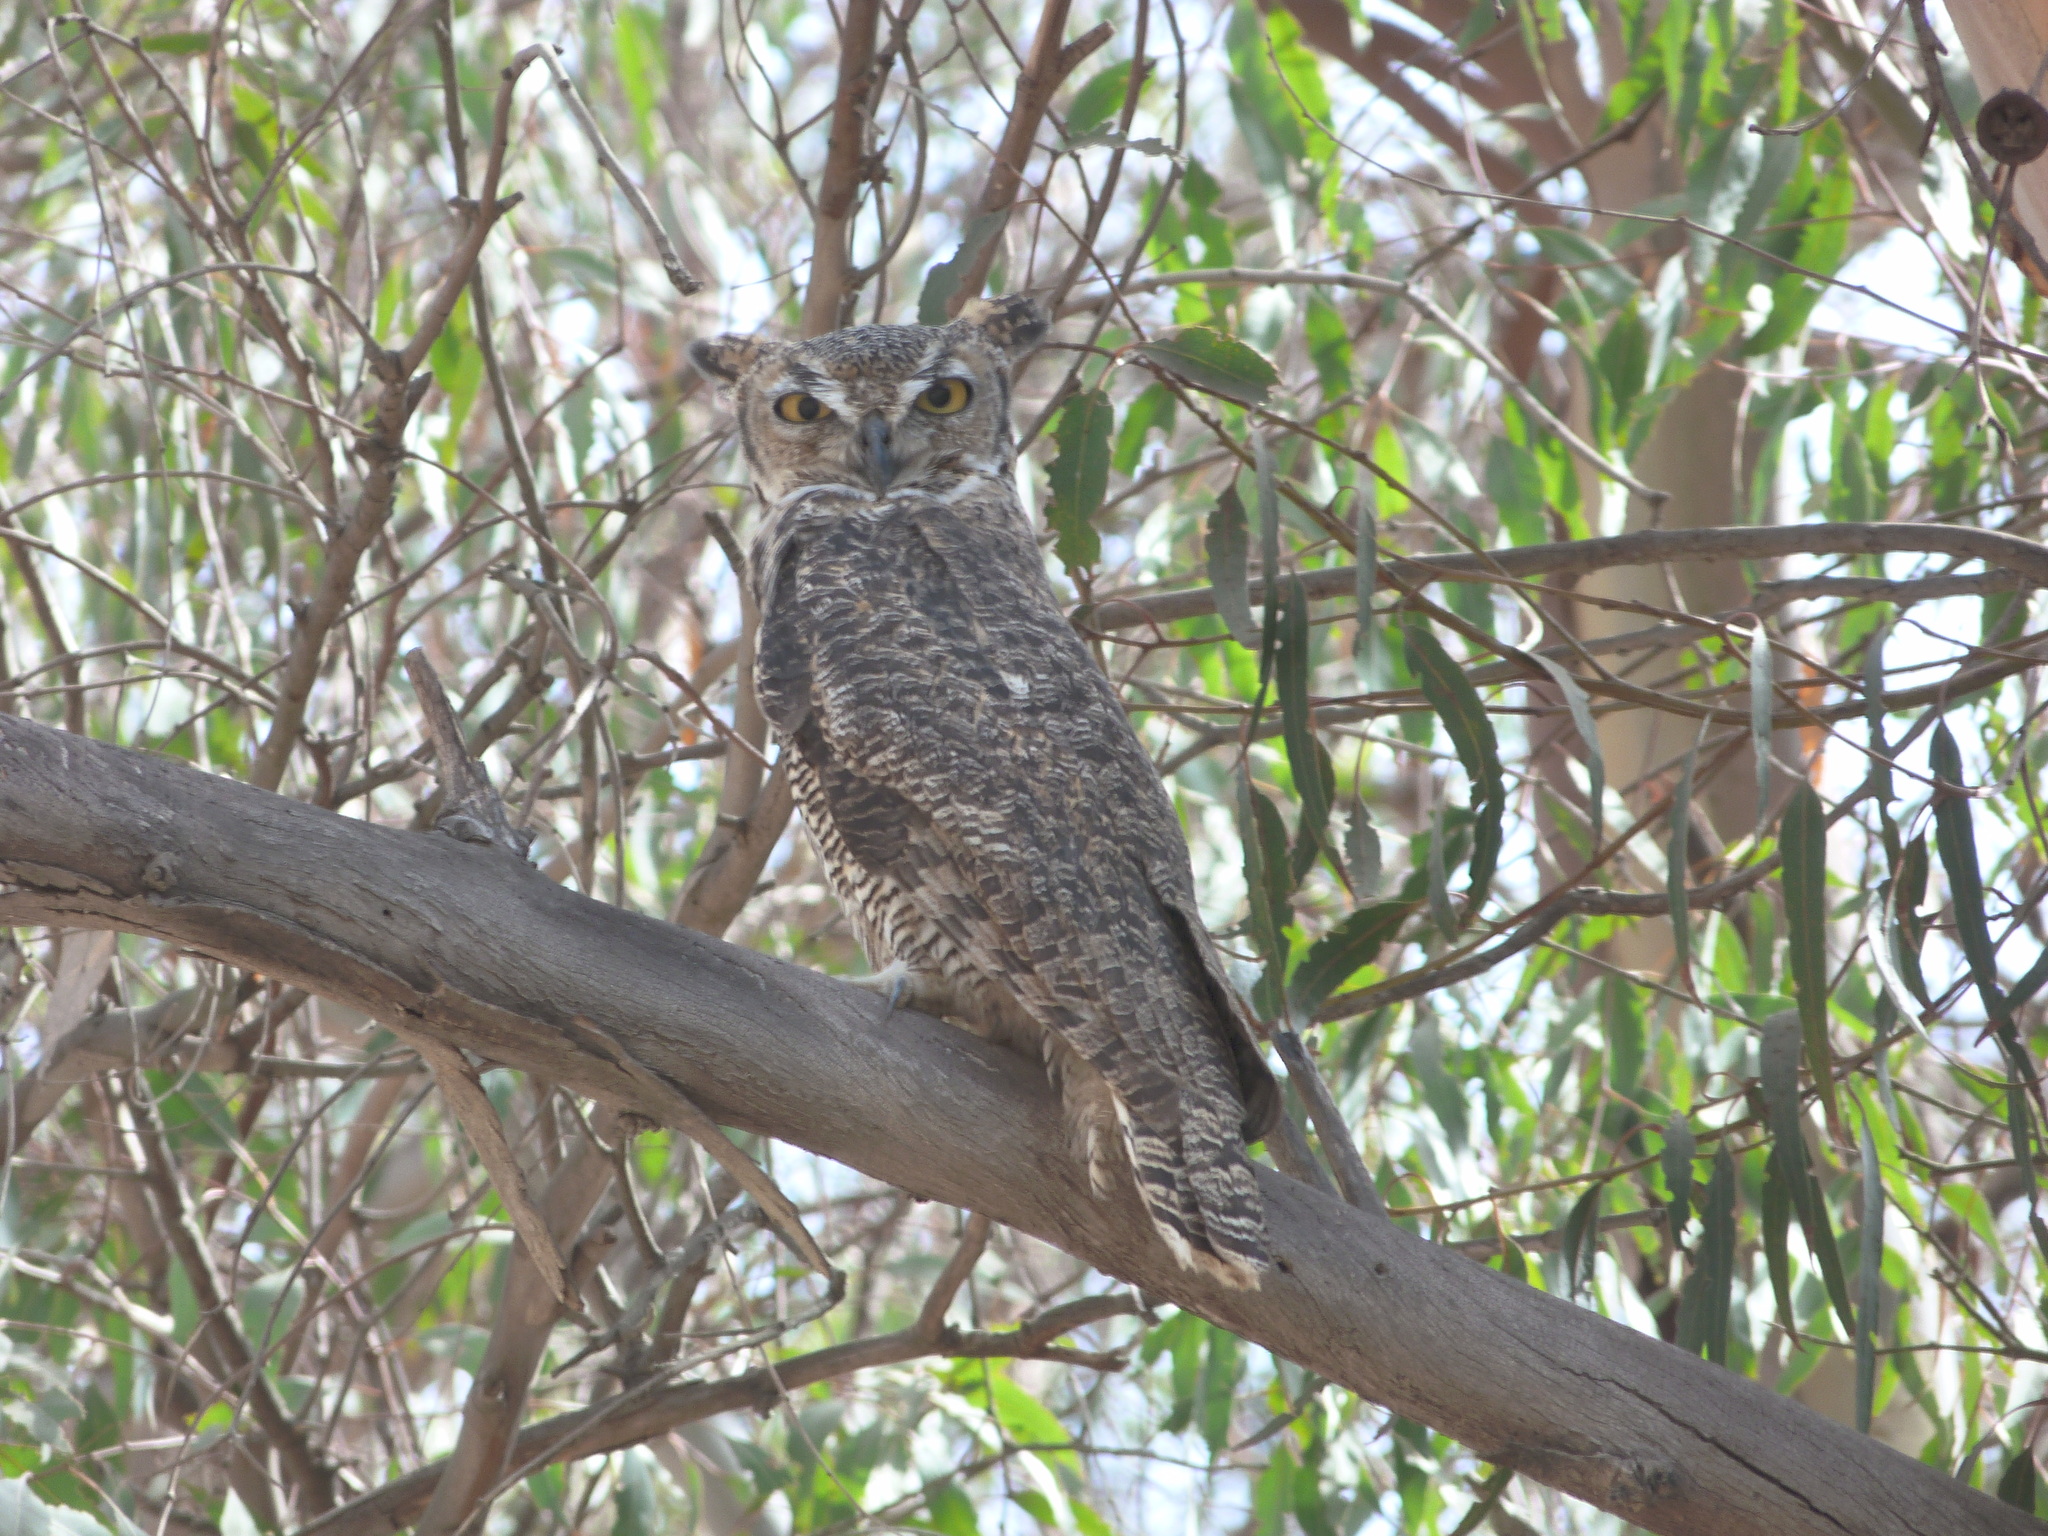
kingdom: Animalia
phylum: Chordata
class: Aves
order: Strigiformes
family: Strigidae
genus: Bubo
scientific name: Bubo virginianus
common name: Great horned owl
